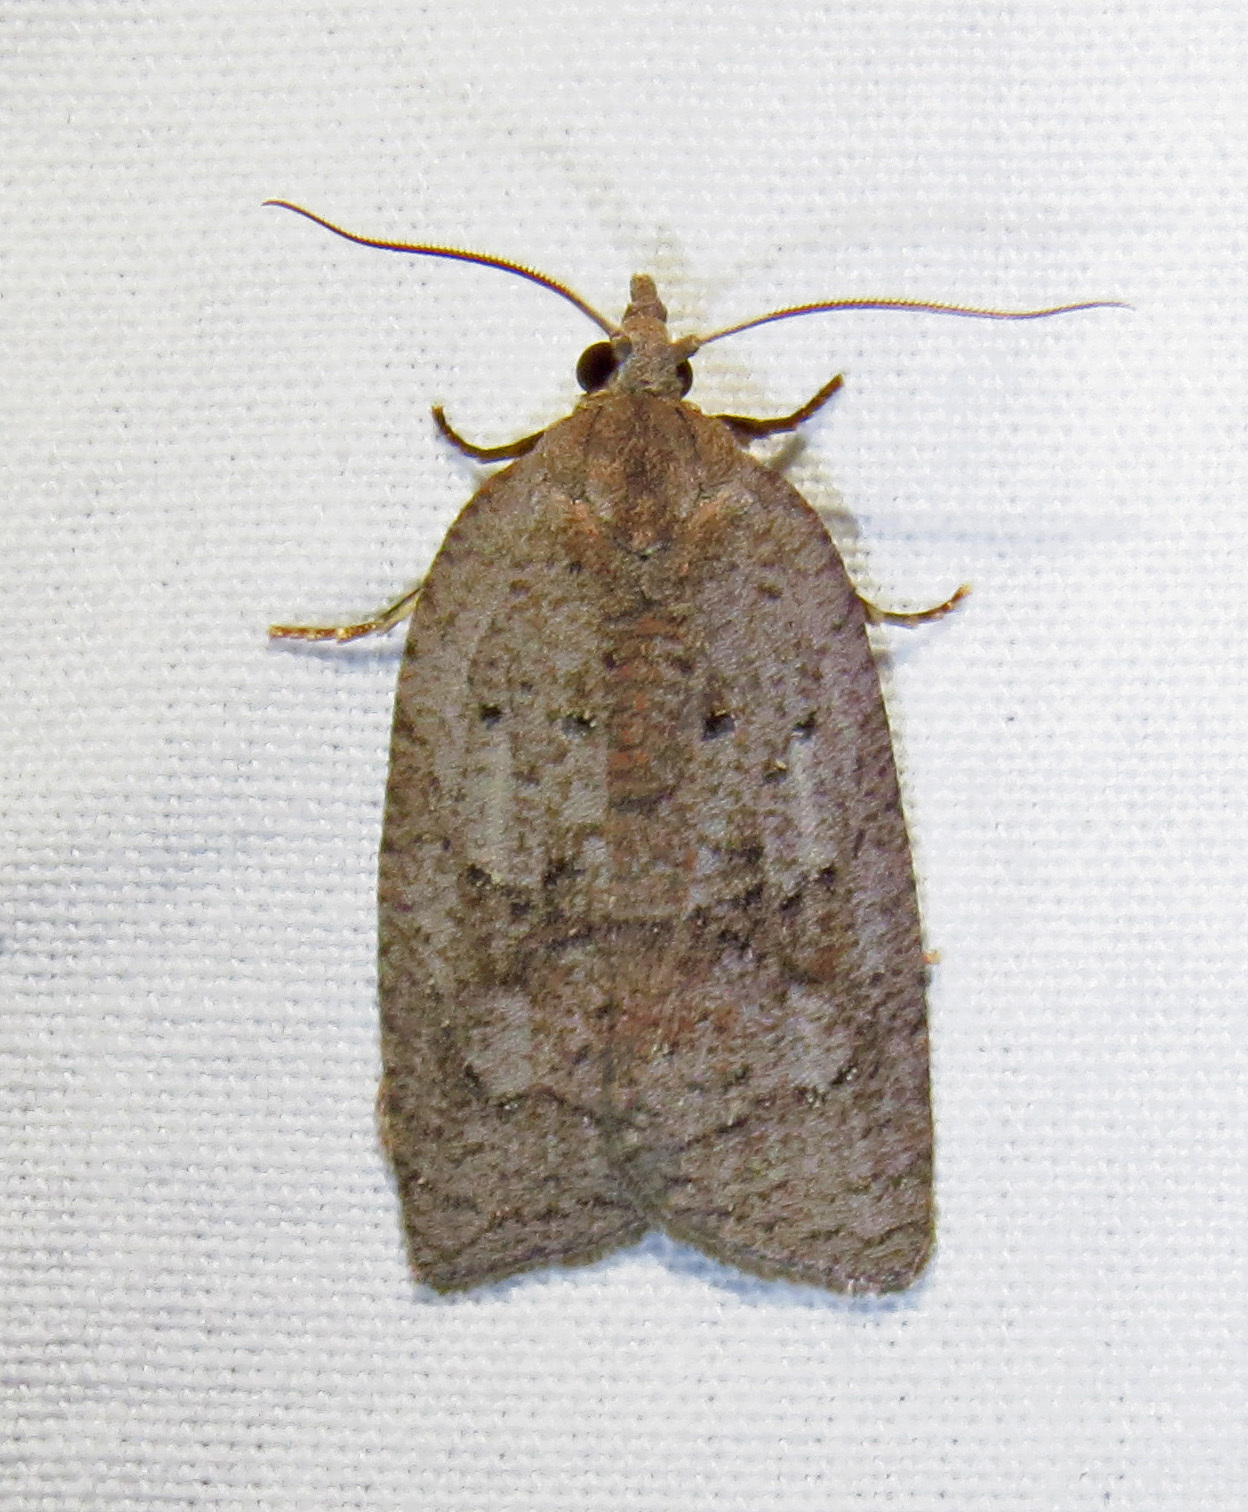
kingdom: Animalia
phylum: Arthropoda
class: Insecta
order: Lepidoptera
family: Tortricidae
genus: Amorbia
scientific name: Amorbia humerosana
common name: White-lined leafroller moth
